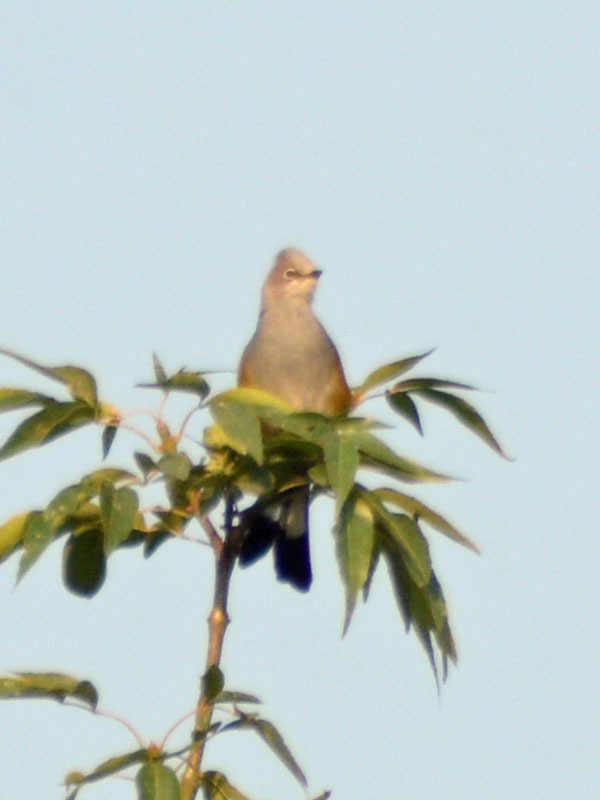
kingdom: Animalia
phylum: Chordata
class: Aves
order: Passeriformes
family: Ptilogonatidae
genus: Ptilogonys
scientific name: Ptilogonys cinereus
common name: Gray silky-flycatcher
